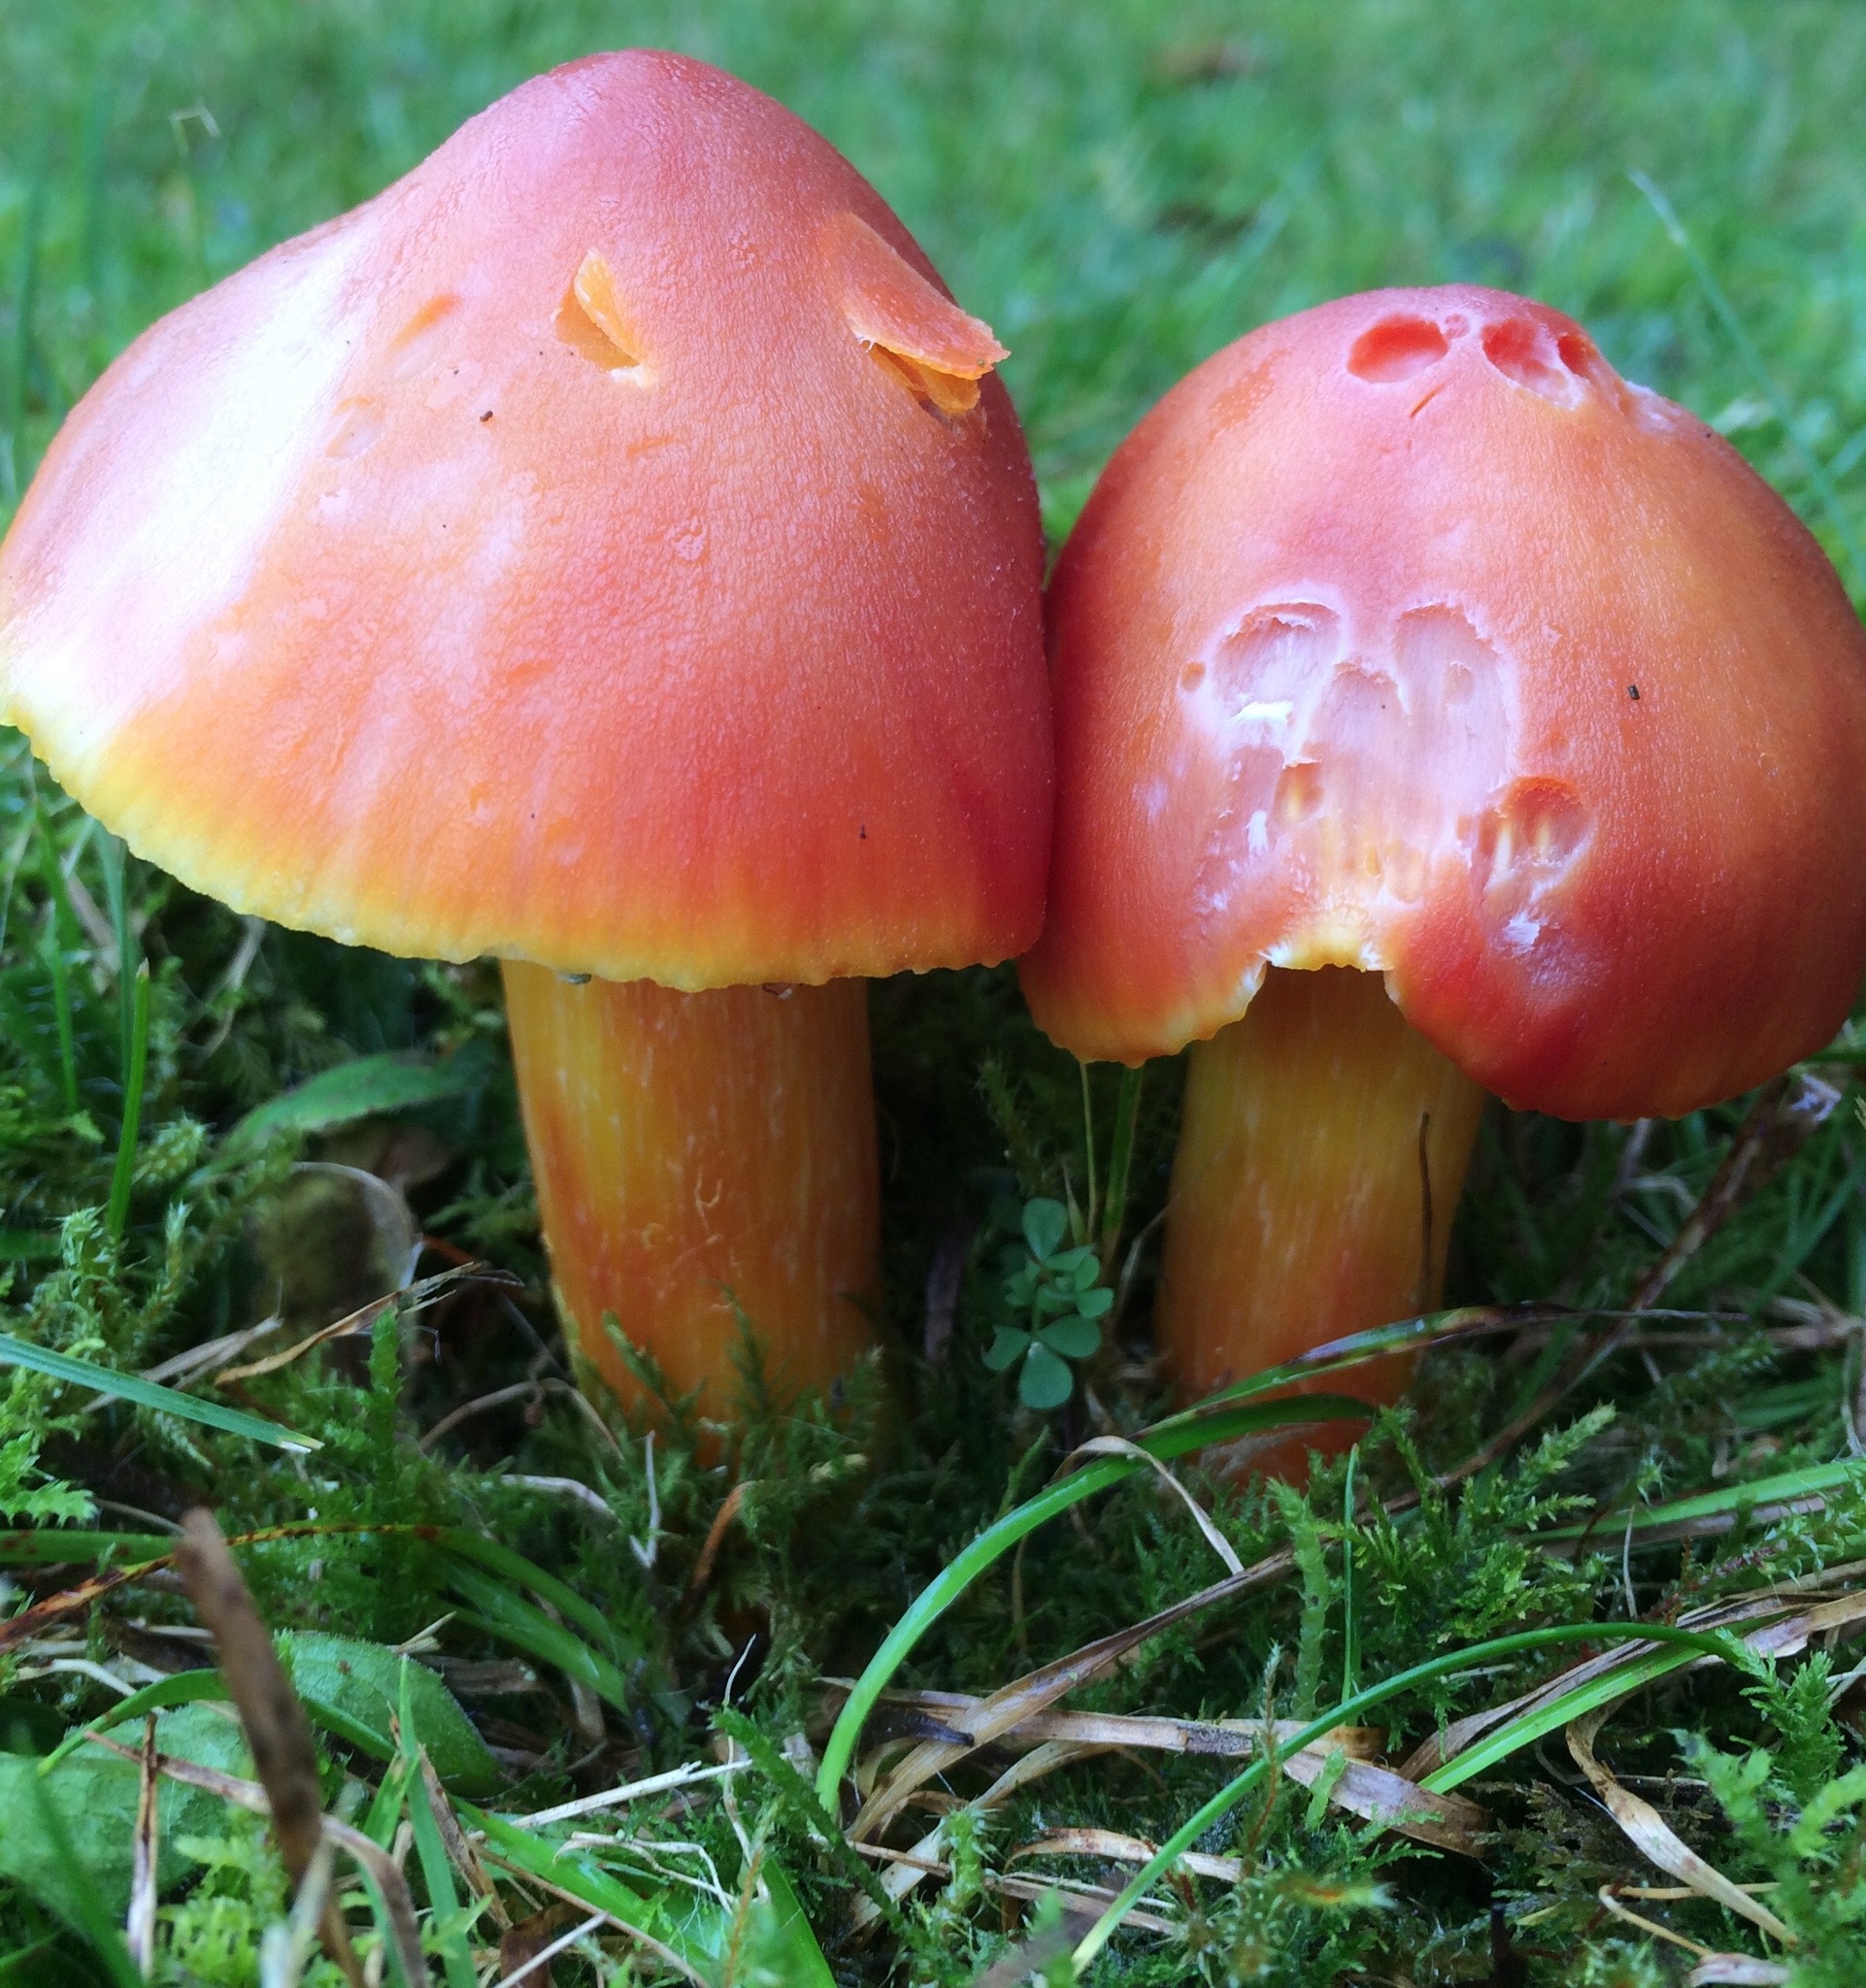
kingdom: Fungi
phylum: Basidiomycota
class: Agaricomycetes
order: Agaricales
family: Hygrophoraceae
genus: Hygrocybe
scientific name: Hygrocybe punicea
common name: Crimson waxcap
